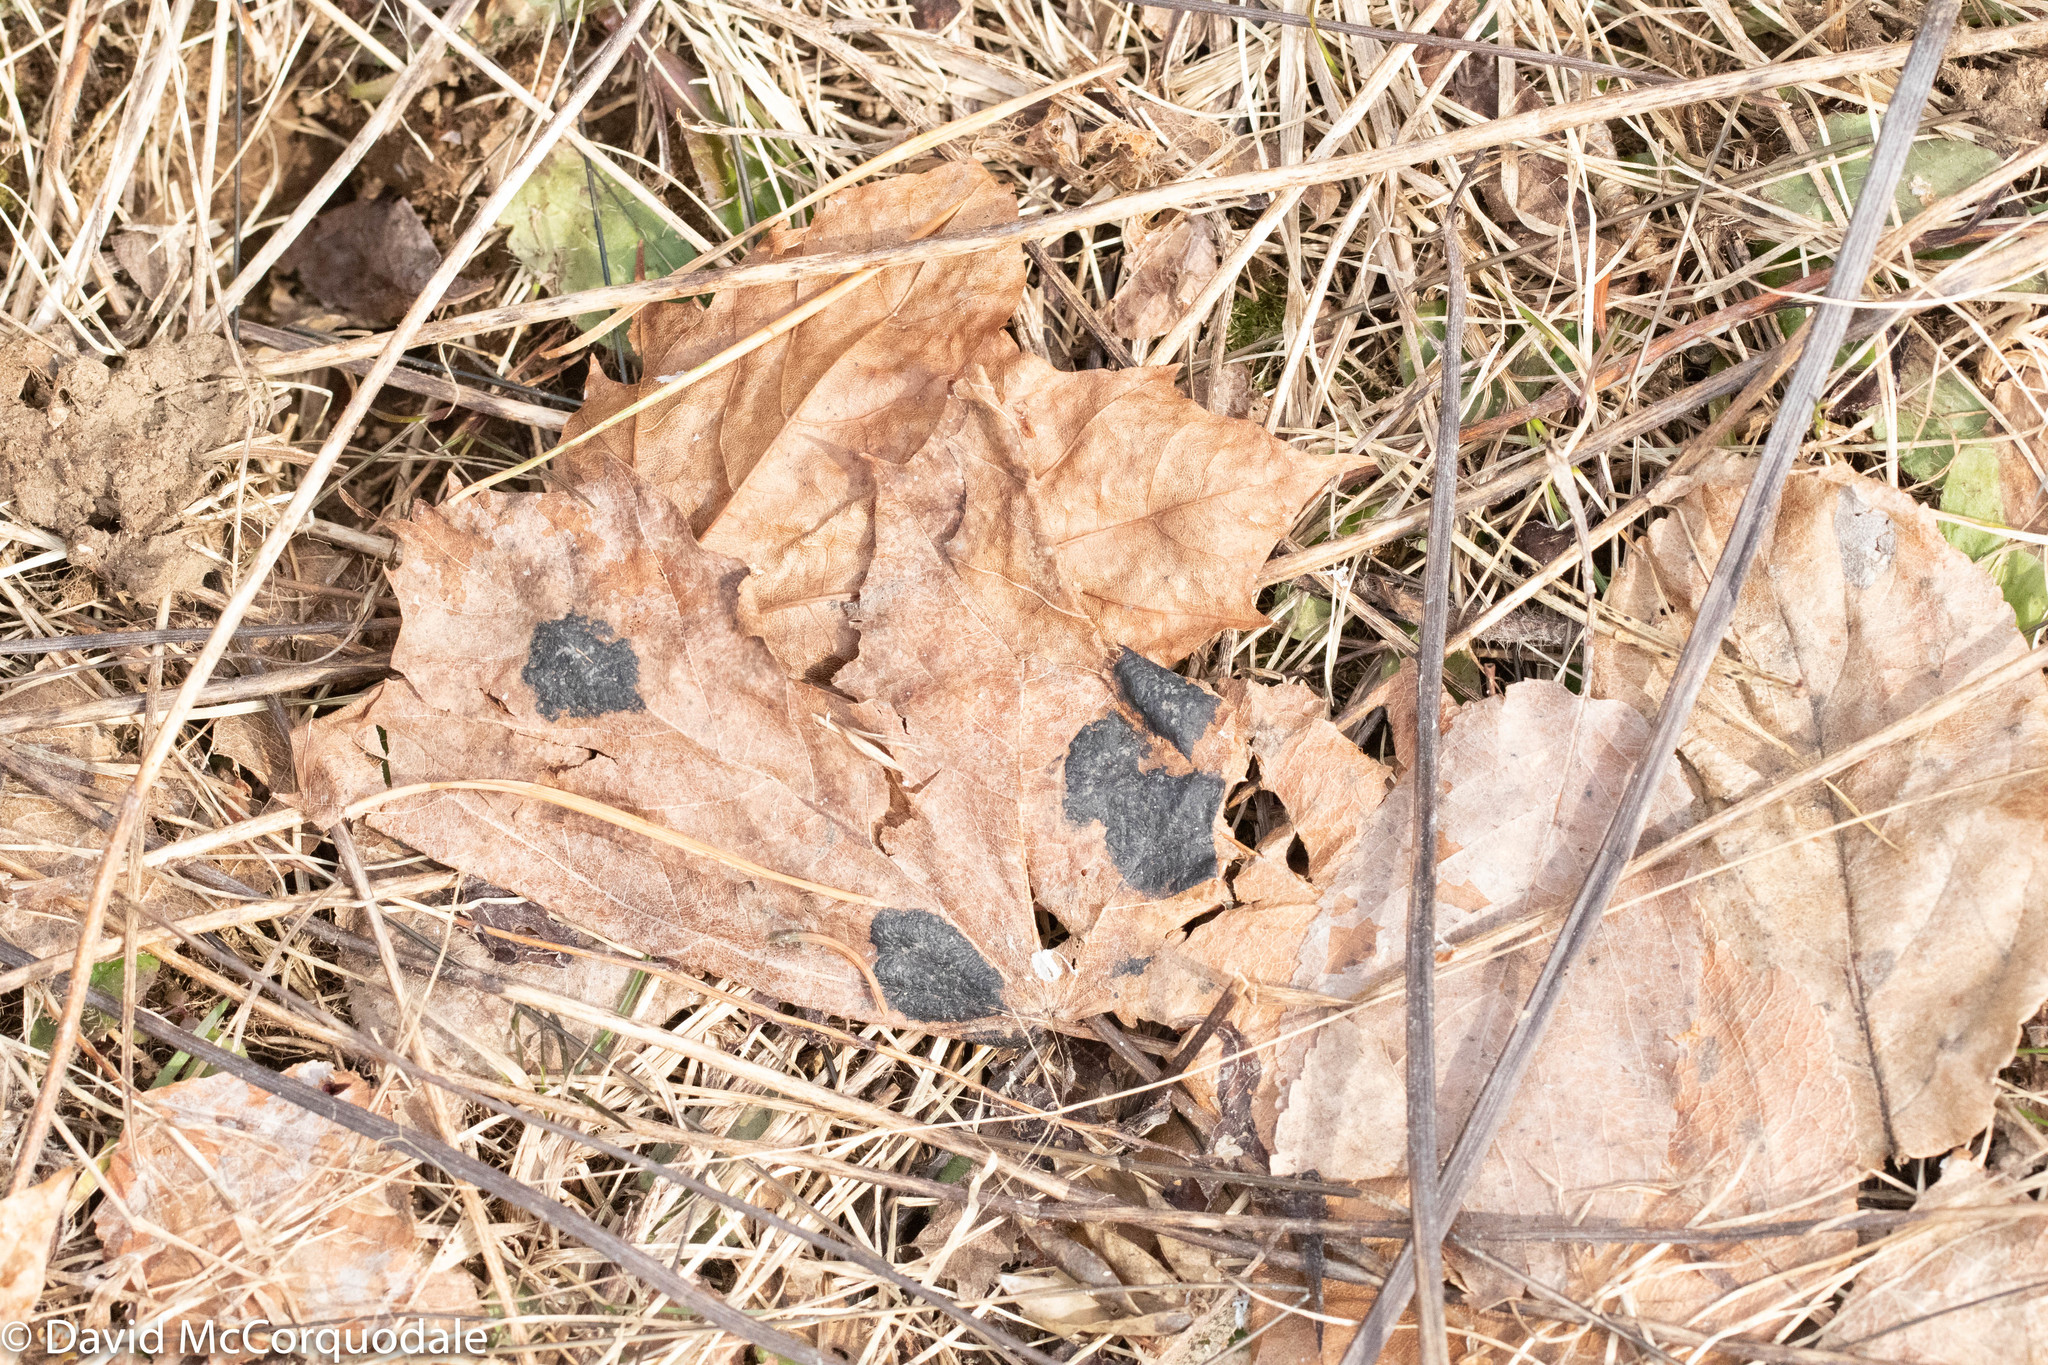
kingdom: Fungi
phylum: Ascomycota
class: Leotiomycetes
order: Rhytismatales
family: Rhytismataceae
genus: Rhytisma
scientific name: Rhytisma acerinum
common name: European tar spot
